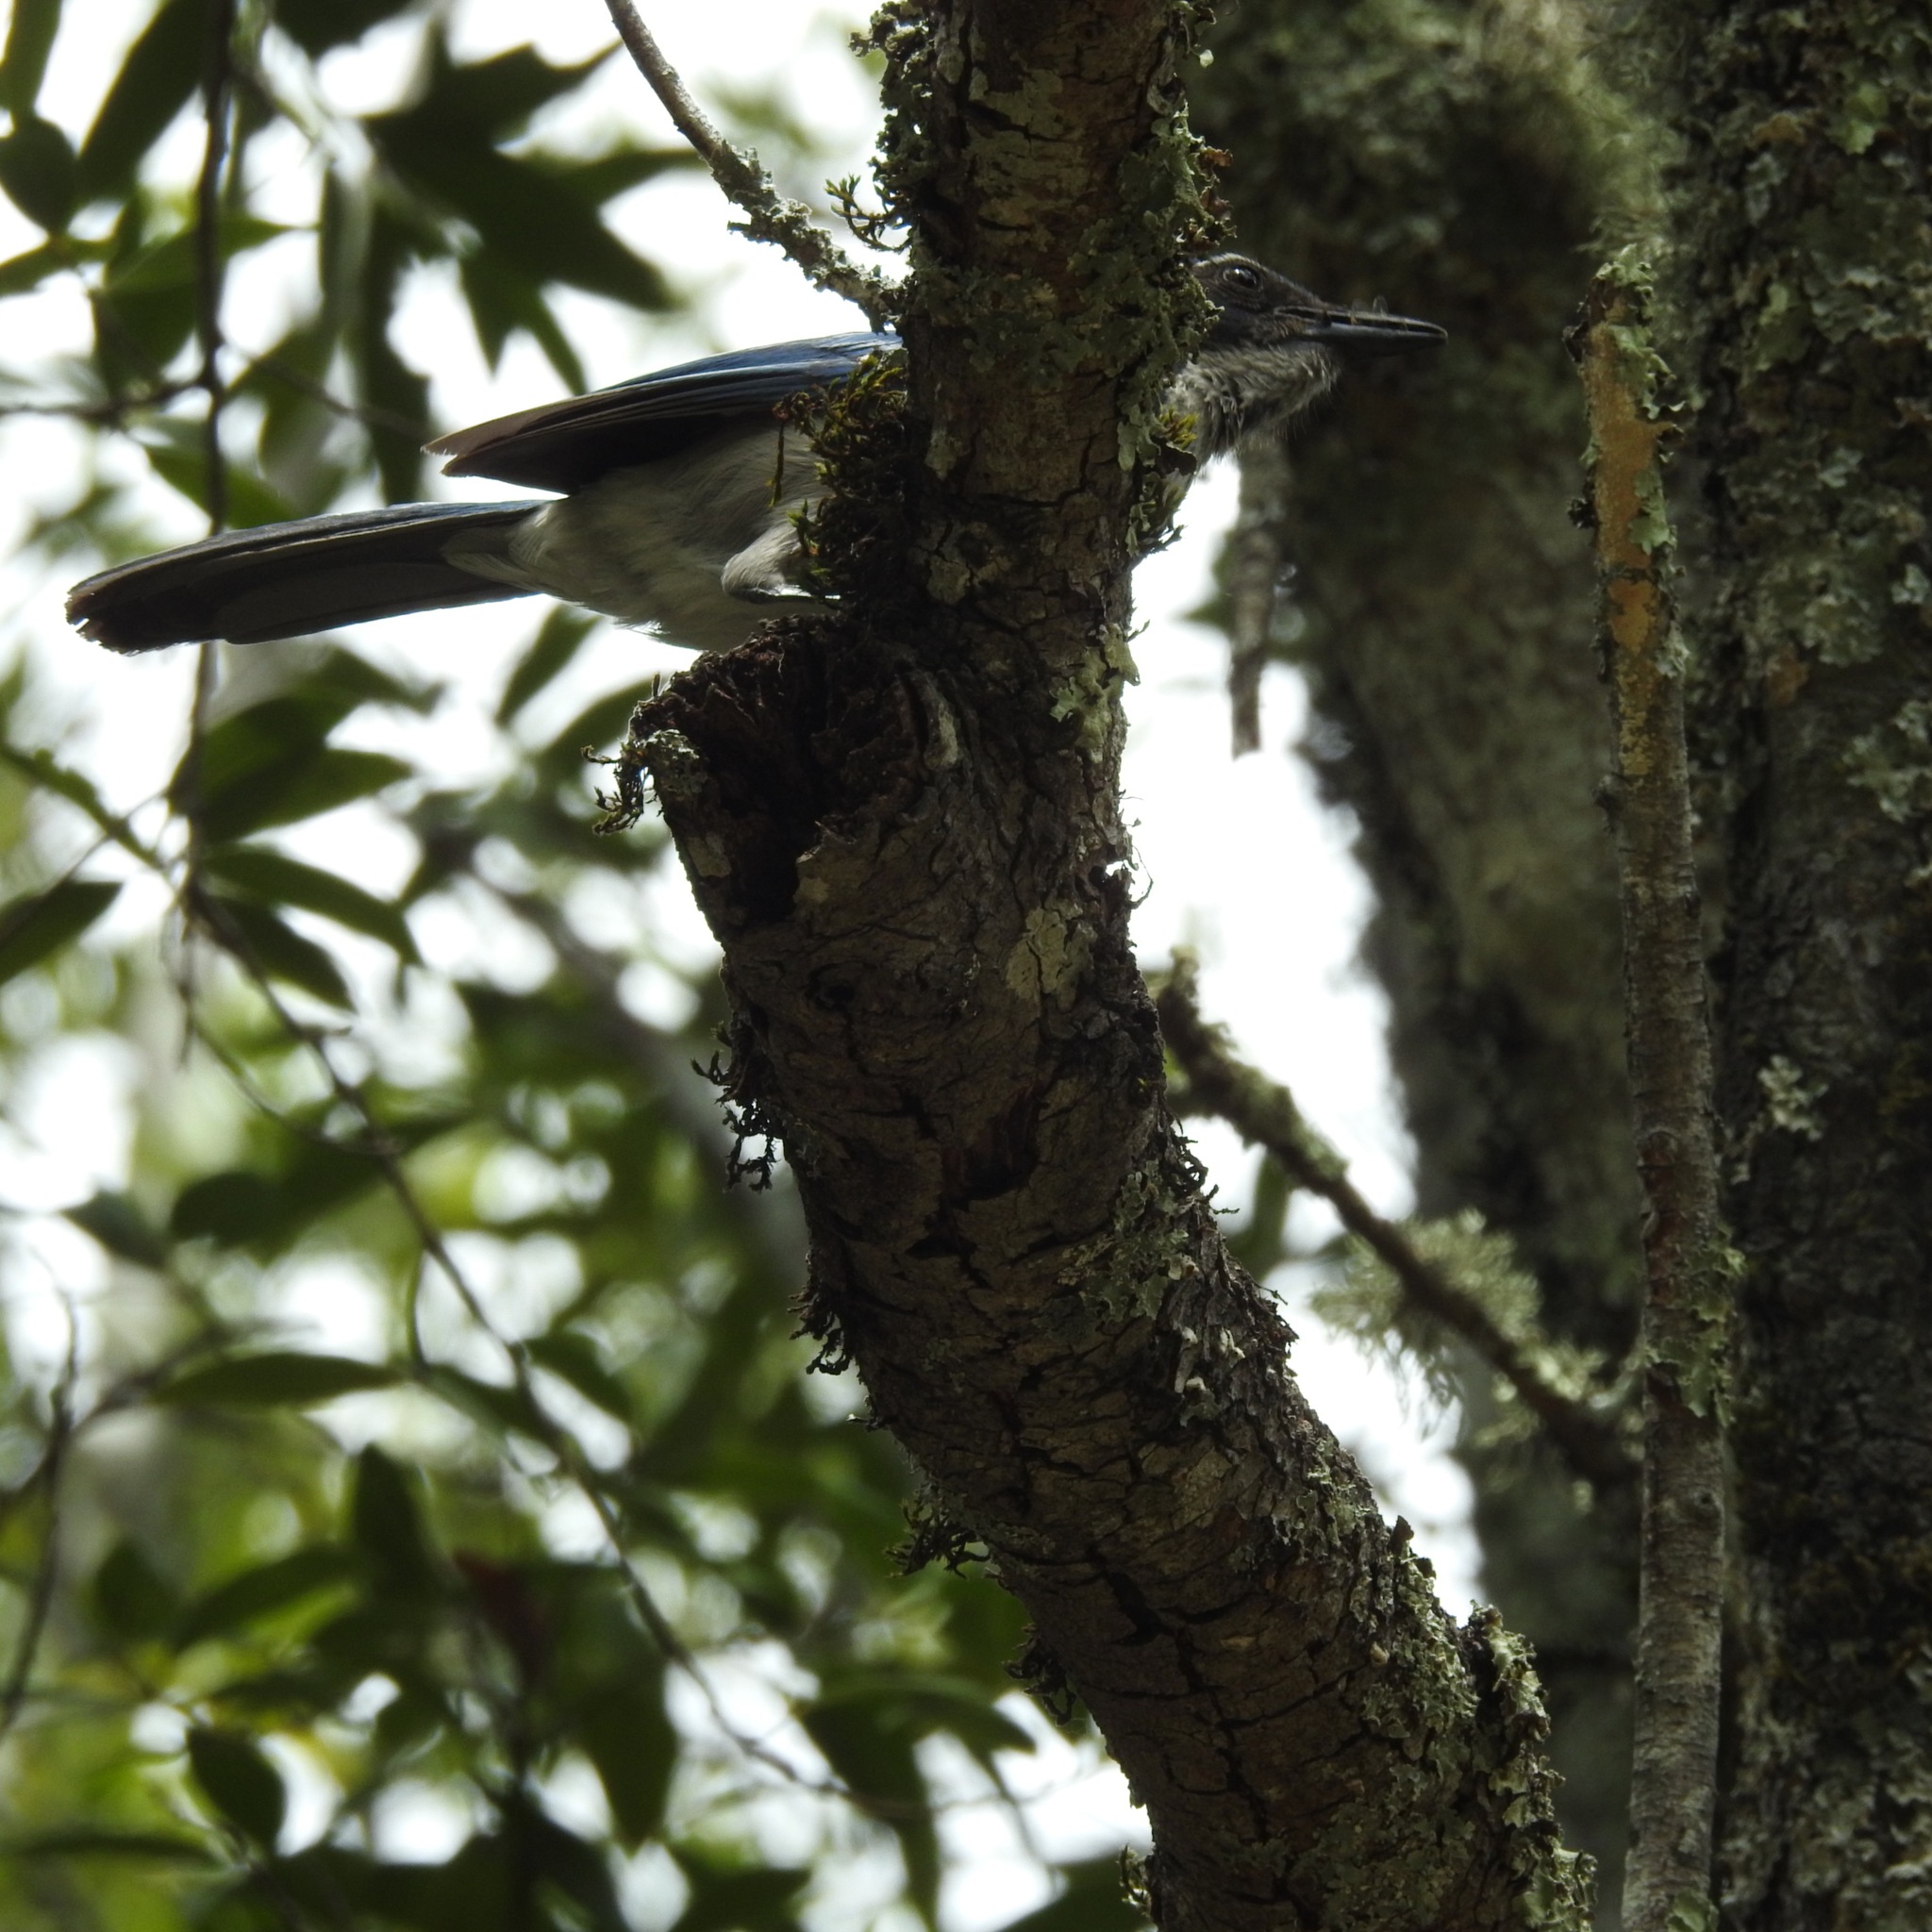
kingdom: Animalia
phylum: Chordata
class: Aves
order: Passeriformes
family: Corvidae
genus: Aphelocoma
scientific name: Aphelocoma californica
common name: California scrub-jay
